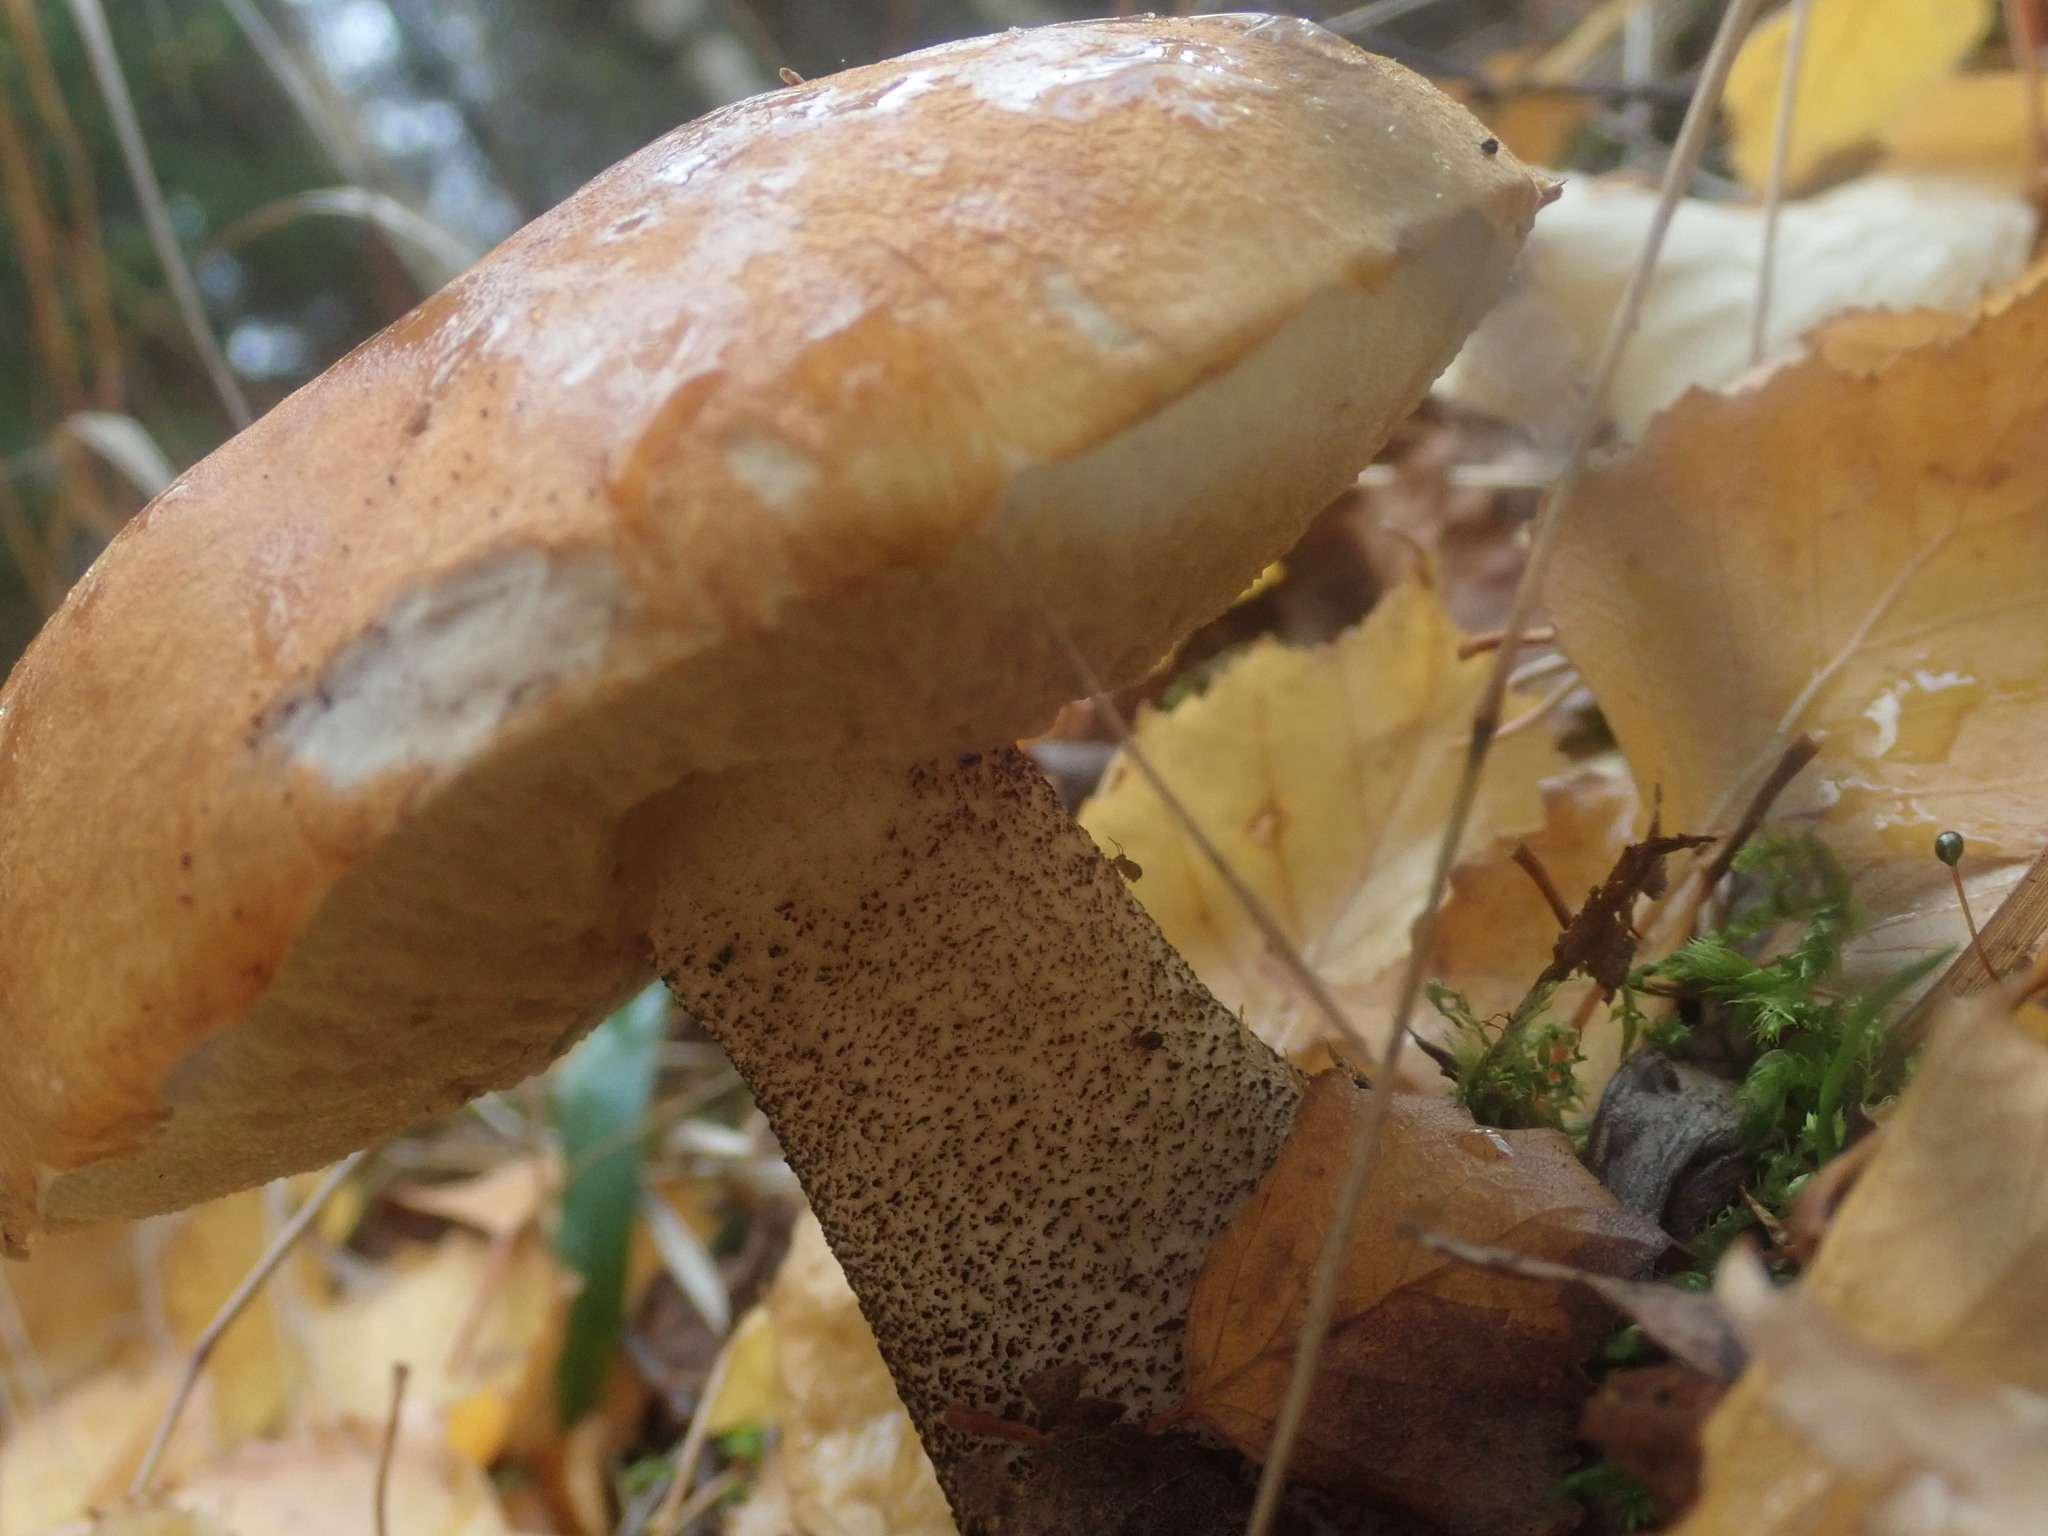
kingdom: Fungi
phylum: Basidiomycota
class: Agaricomycetes
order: Boletales
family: Boletaceae
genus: Leccinum
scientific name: Leccinum versipelle
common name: Orange birch bolete
